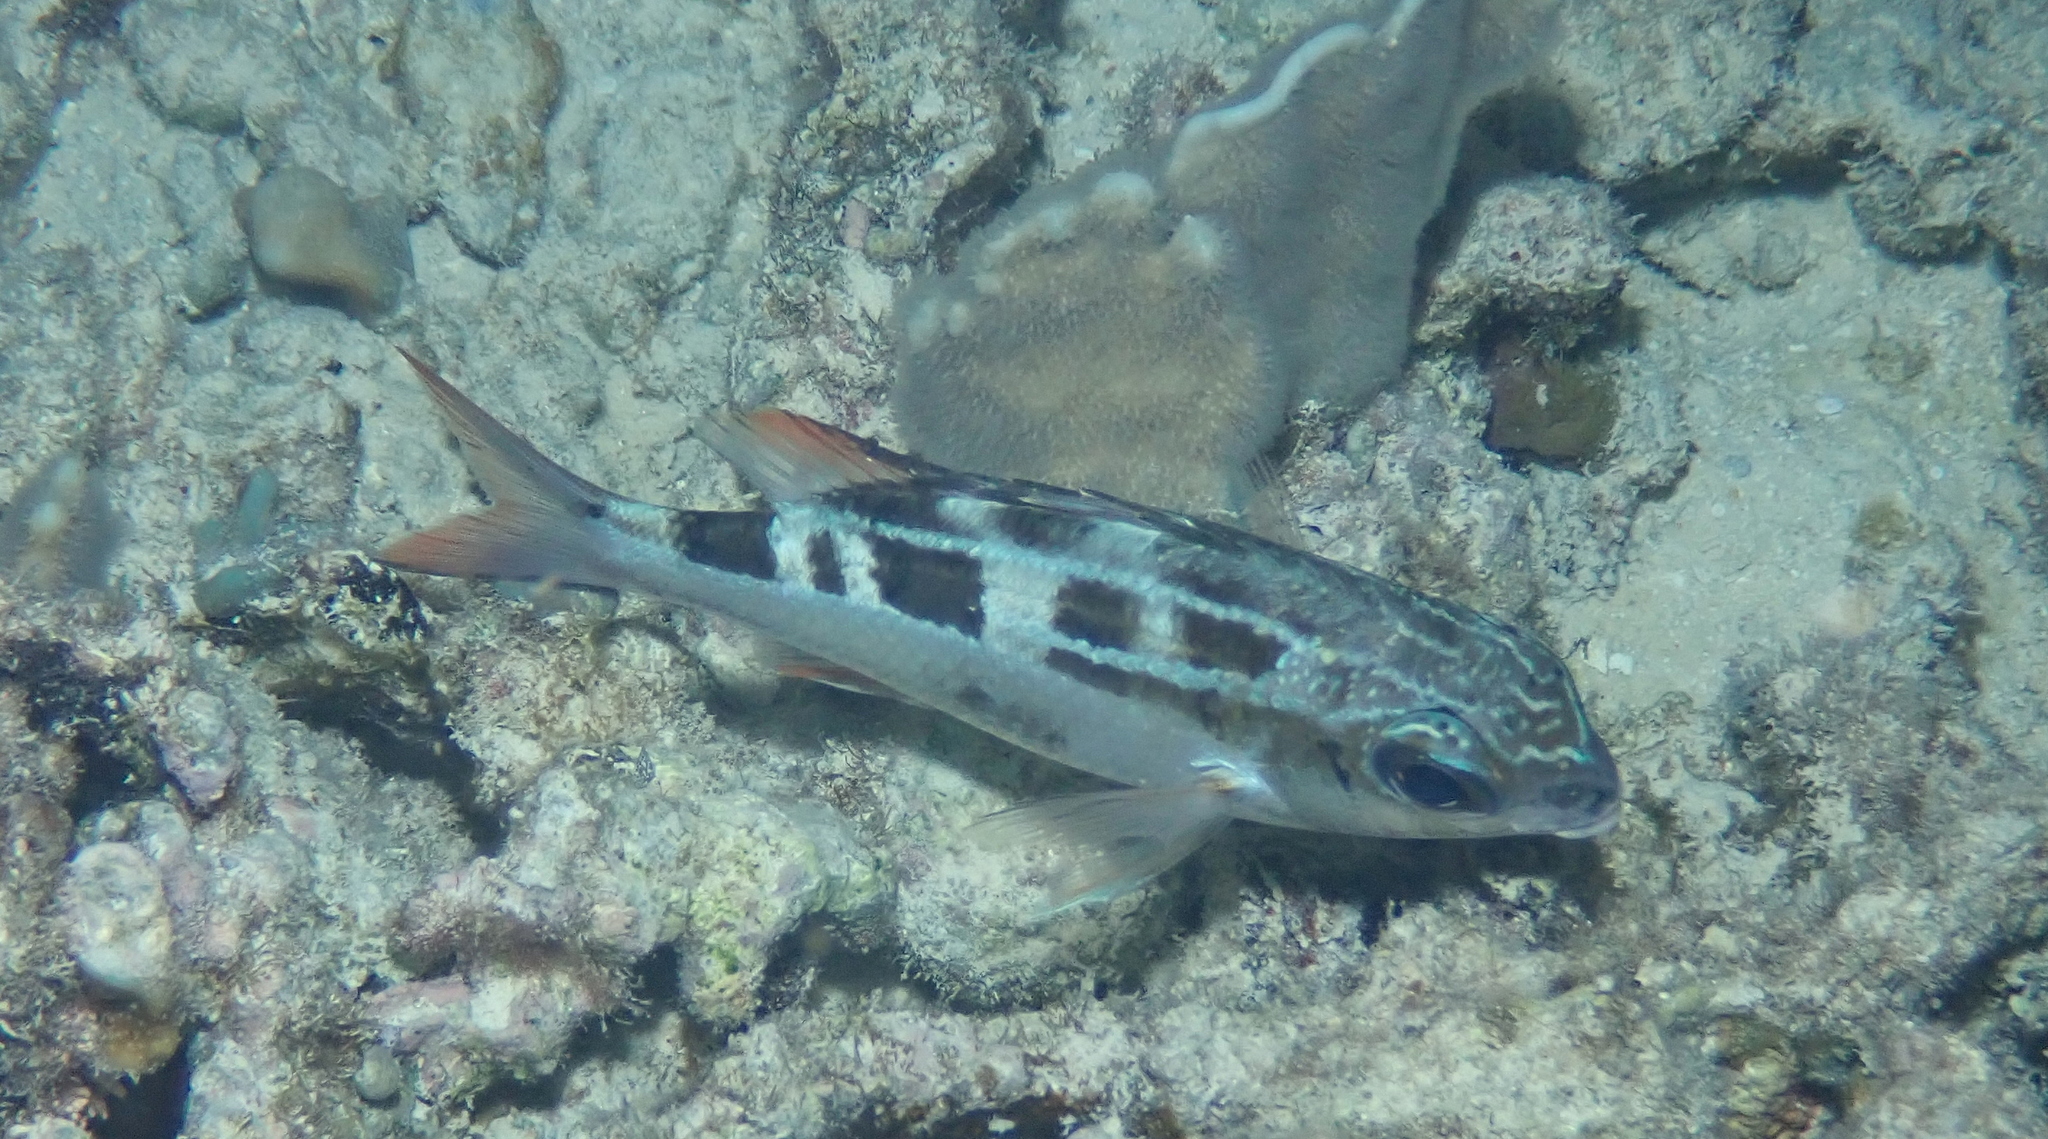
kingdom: Animalia
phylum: Chordata
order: Perciformes
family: Nemipteridae
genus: Scolopsis
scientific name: Scolopsis lineata
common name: Striped monocle bream
